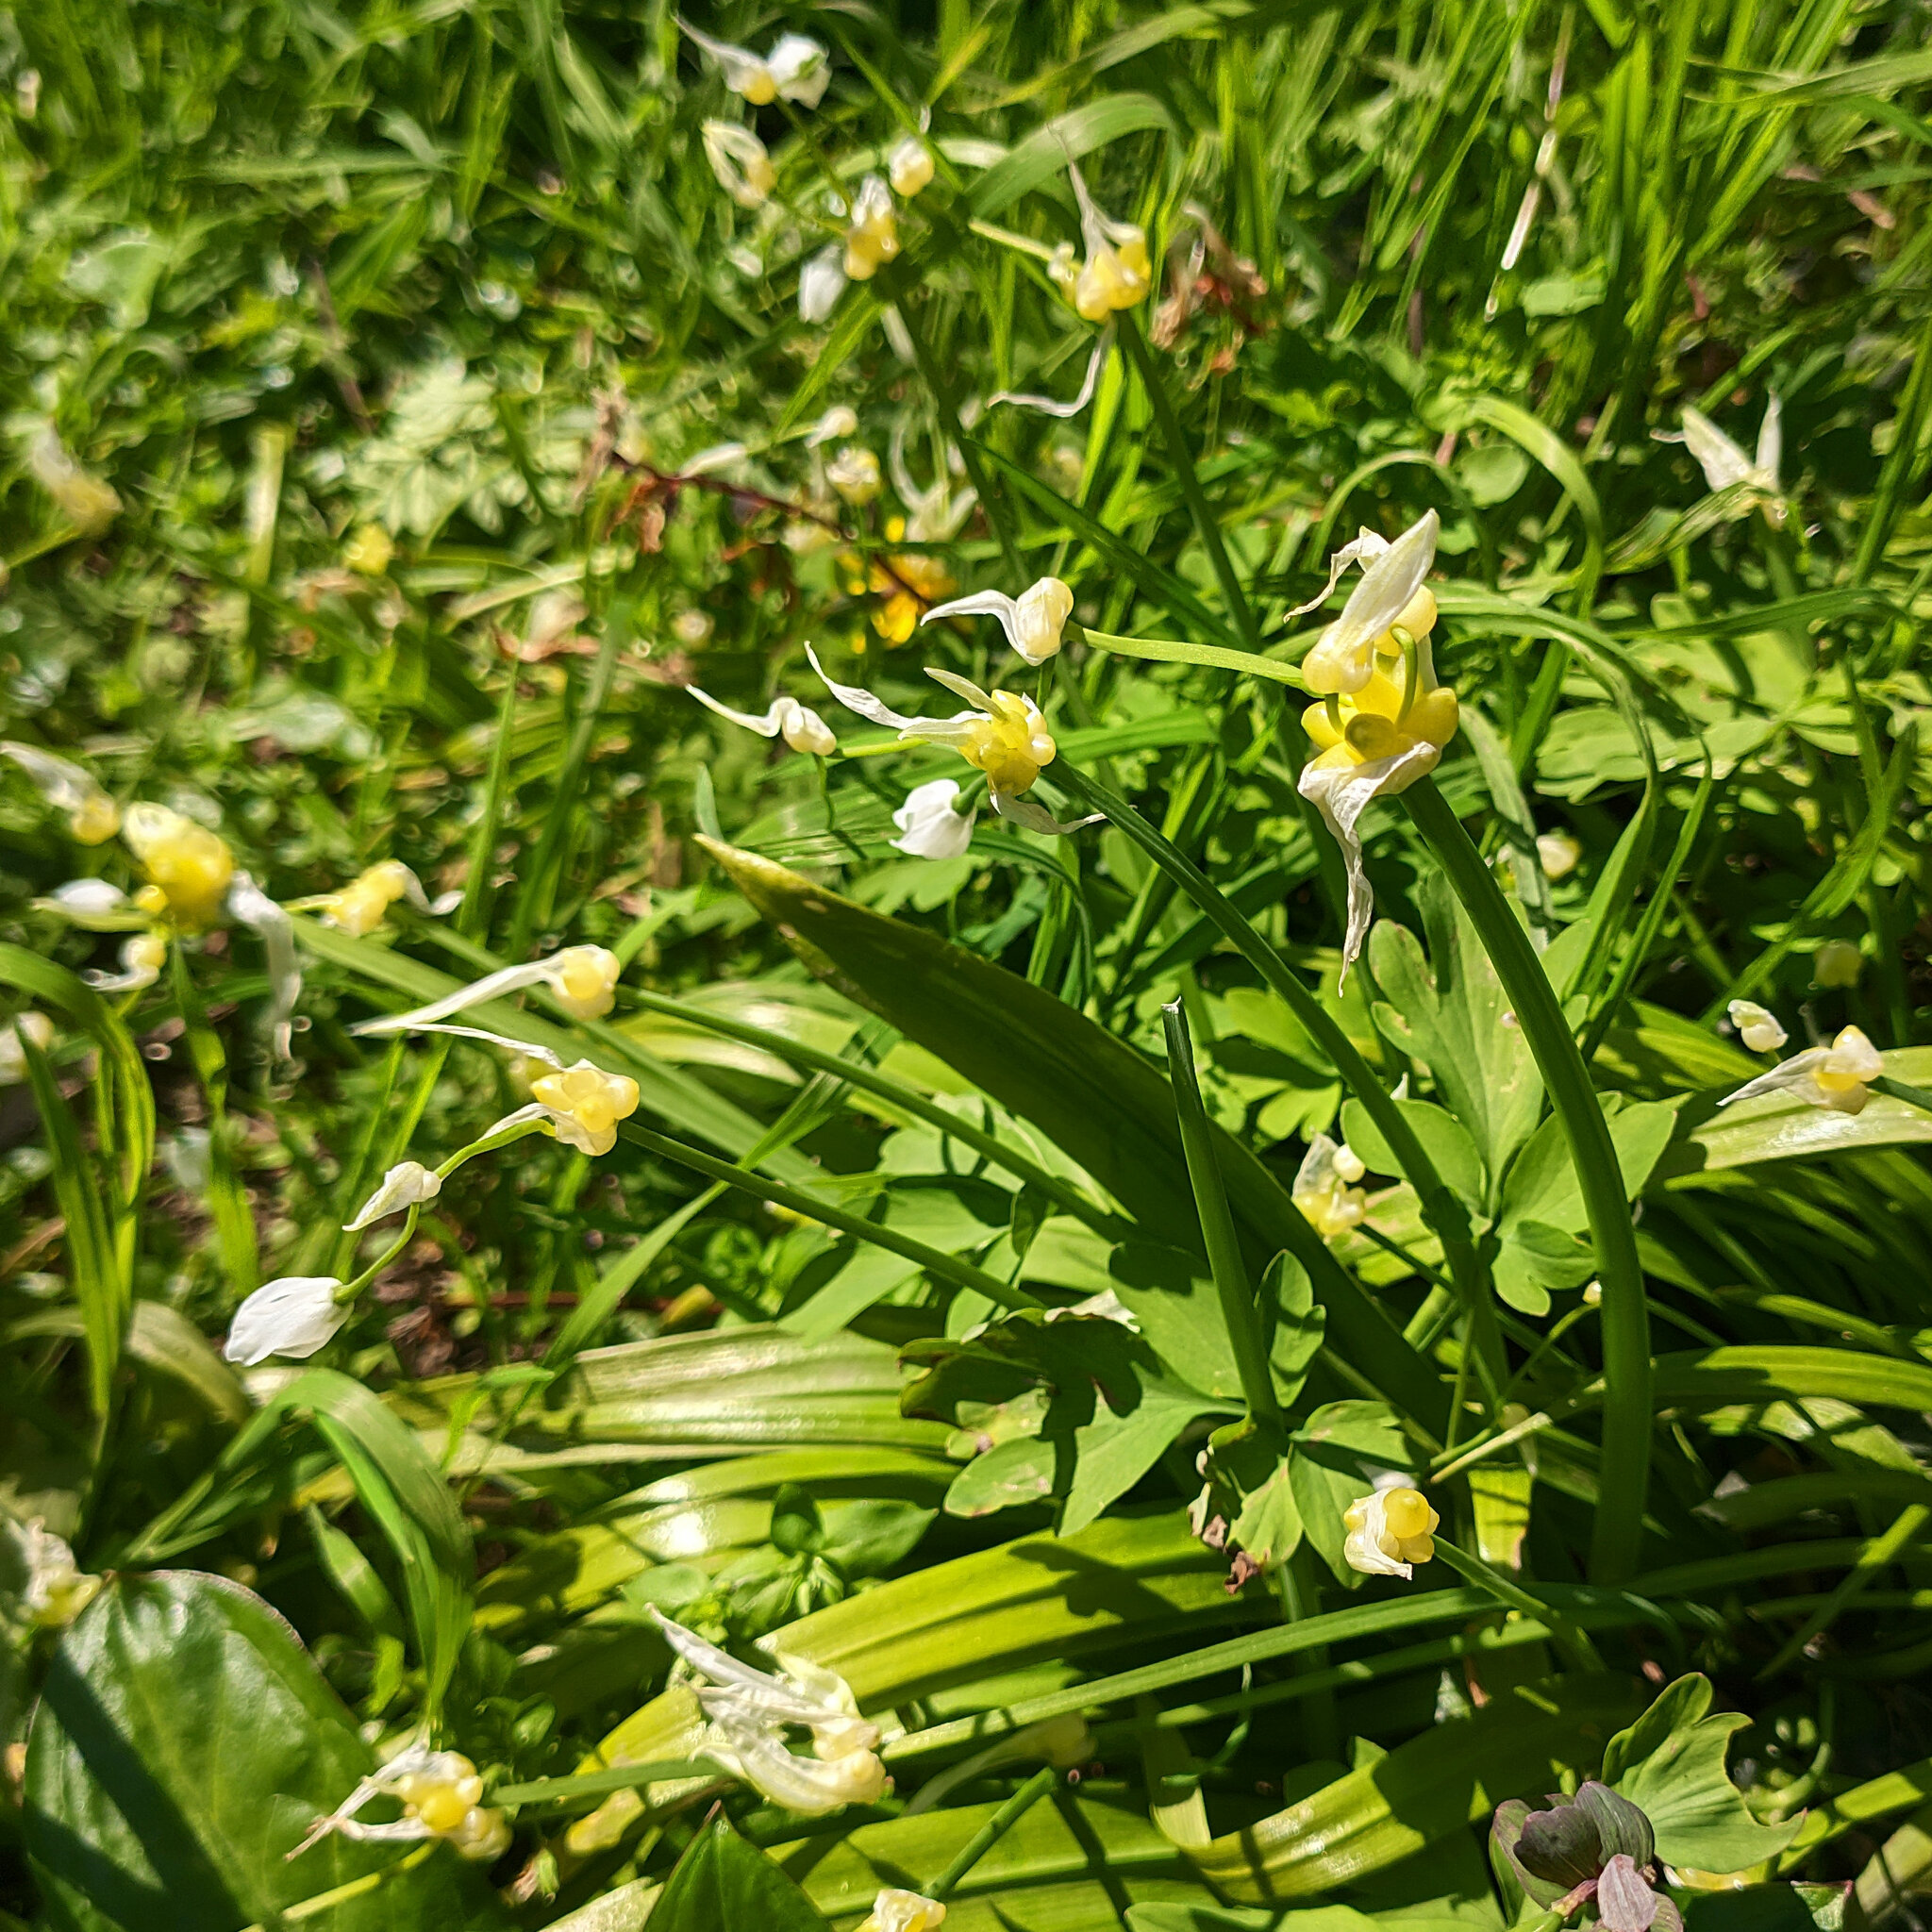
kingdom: Plantae
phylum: Tracheophyta
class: Liliopsida
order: Asparagales
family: Amaryllidaceae
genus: Allium
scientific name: Allium paradoxum
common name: Few-flowered garlic
